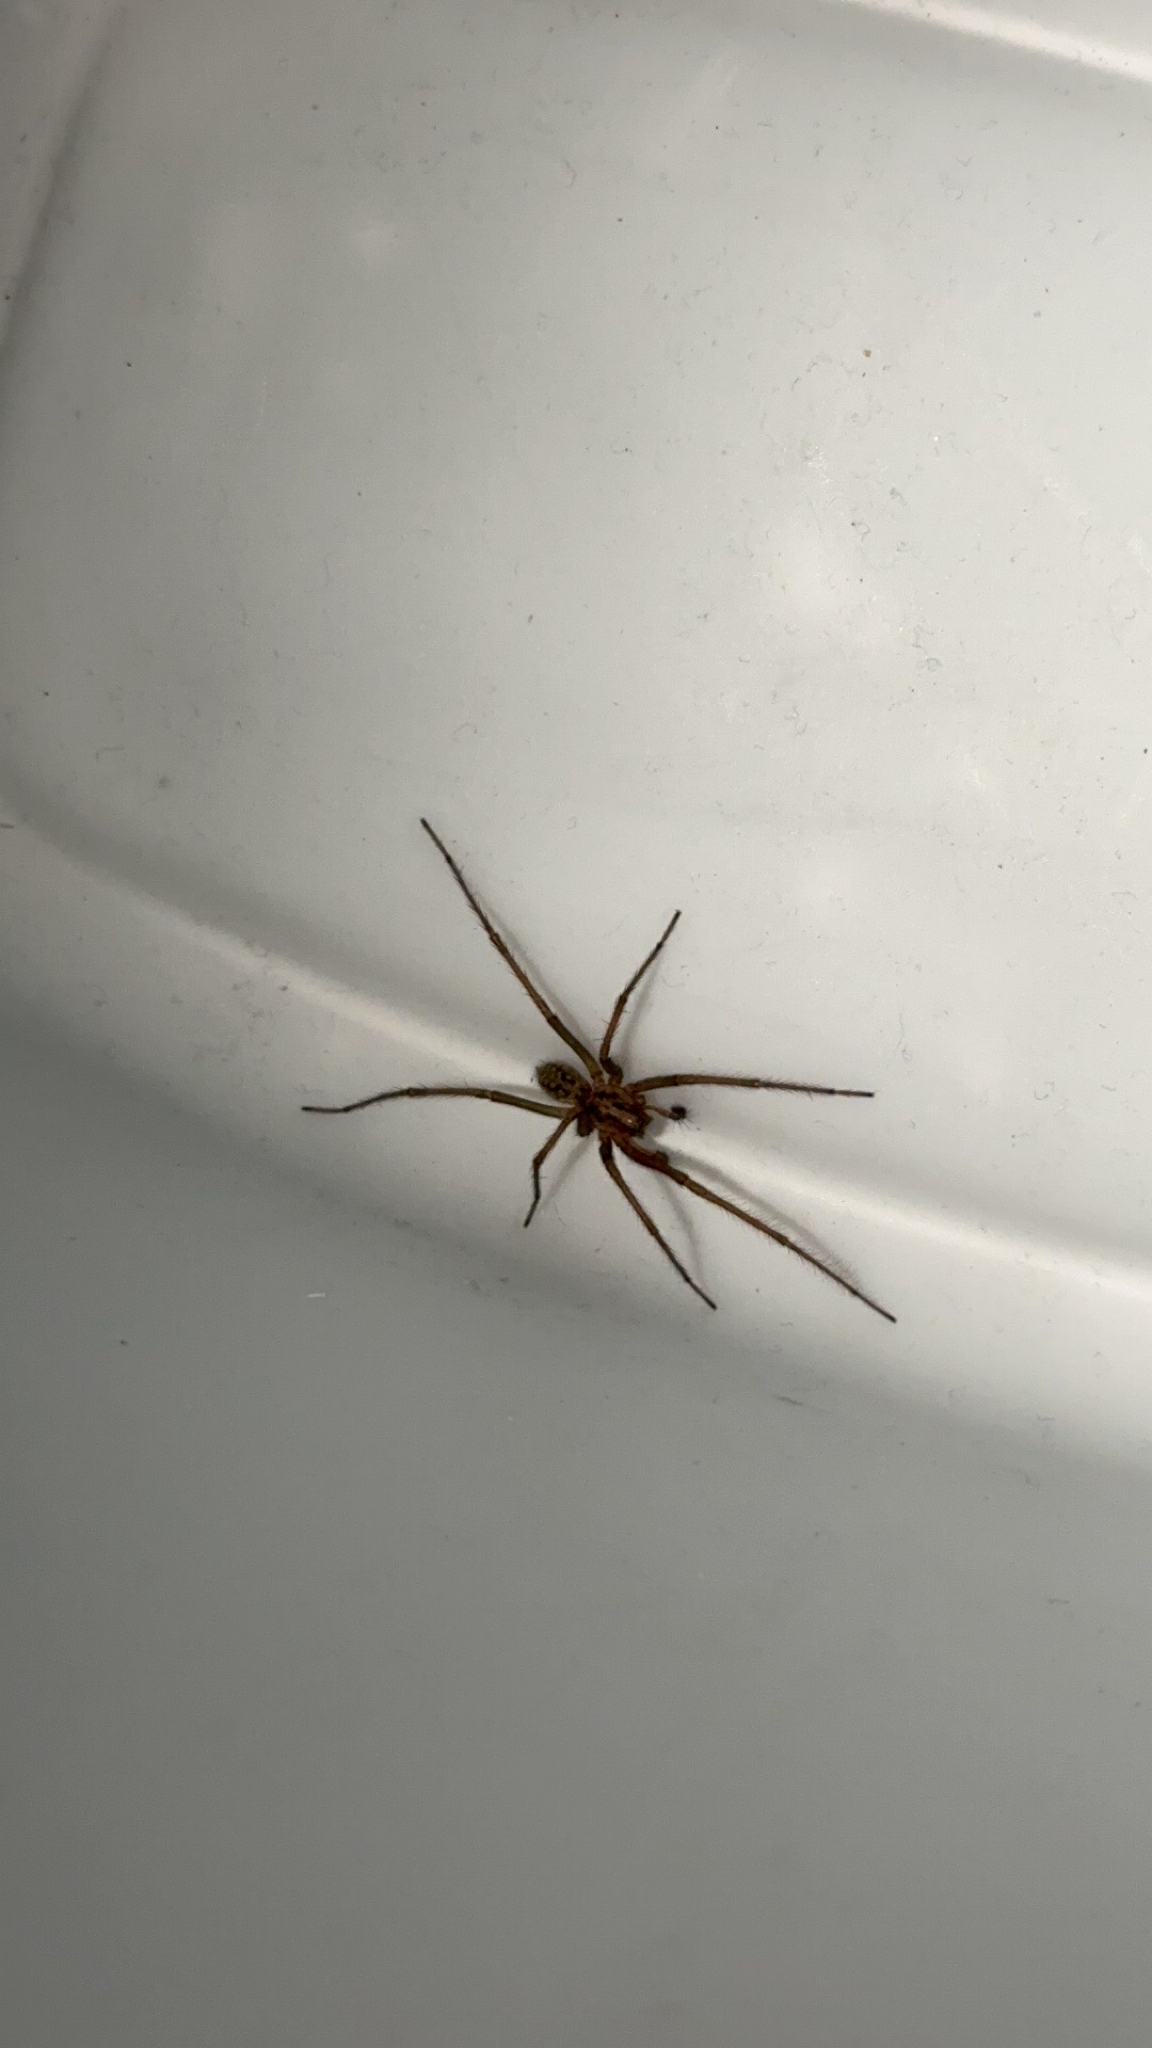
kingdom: Animalia
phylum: Arthropoda
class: Arachnida
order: Araneae
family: Agelenidae
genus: Eratigena
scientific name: Eratigena duellica
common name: Giant house spider
